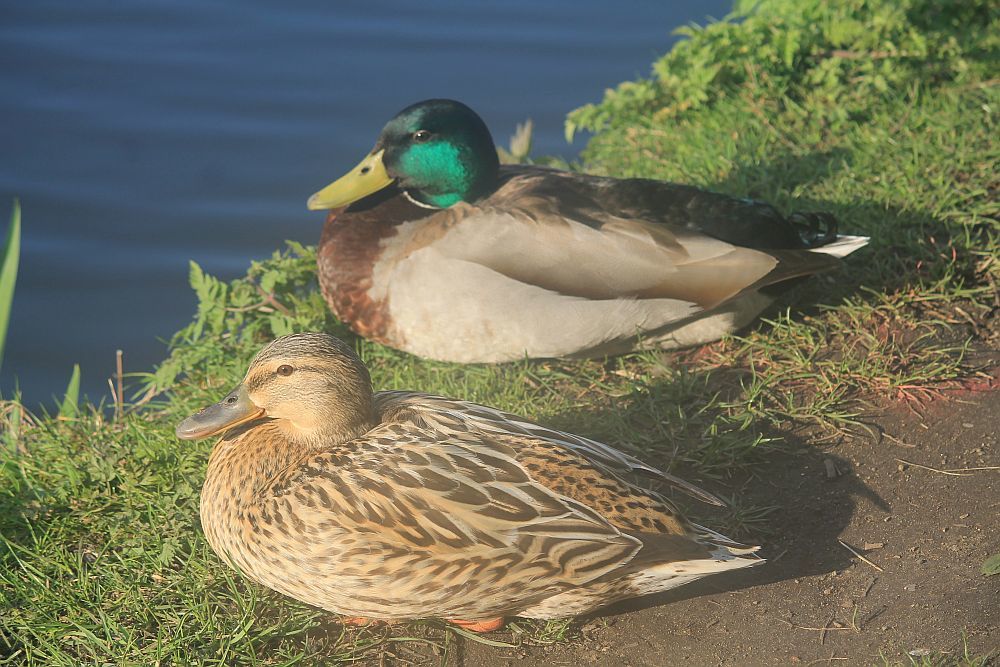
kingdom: Animalia
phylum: Chordata
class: Aves
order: Anseriformes
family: Anatidae
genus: Anas
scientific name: Anas platyrhynchos
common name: Mallard
